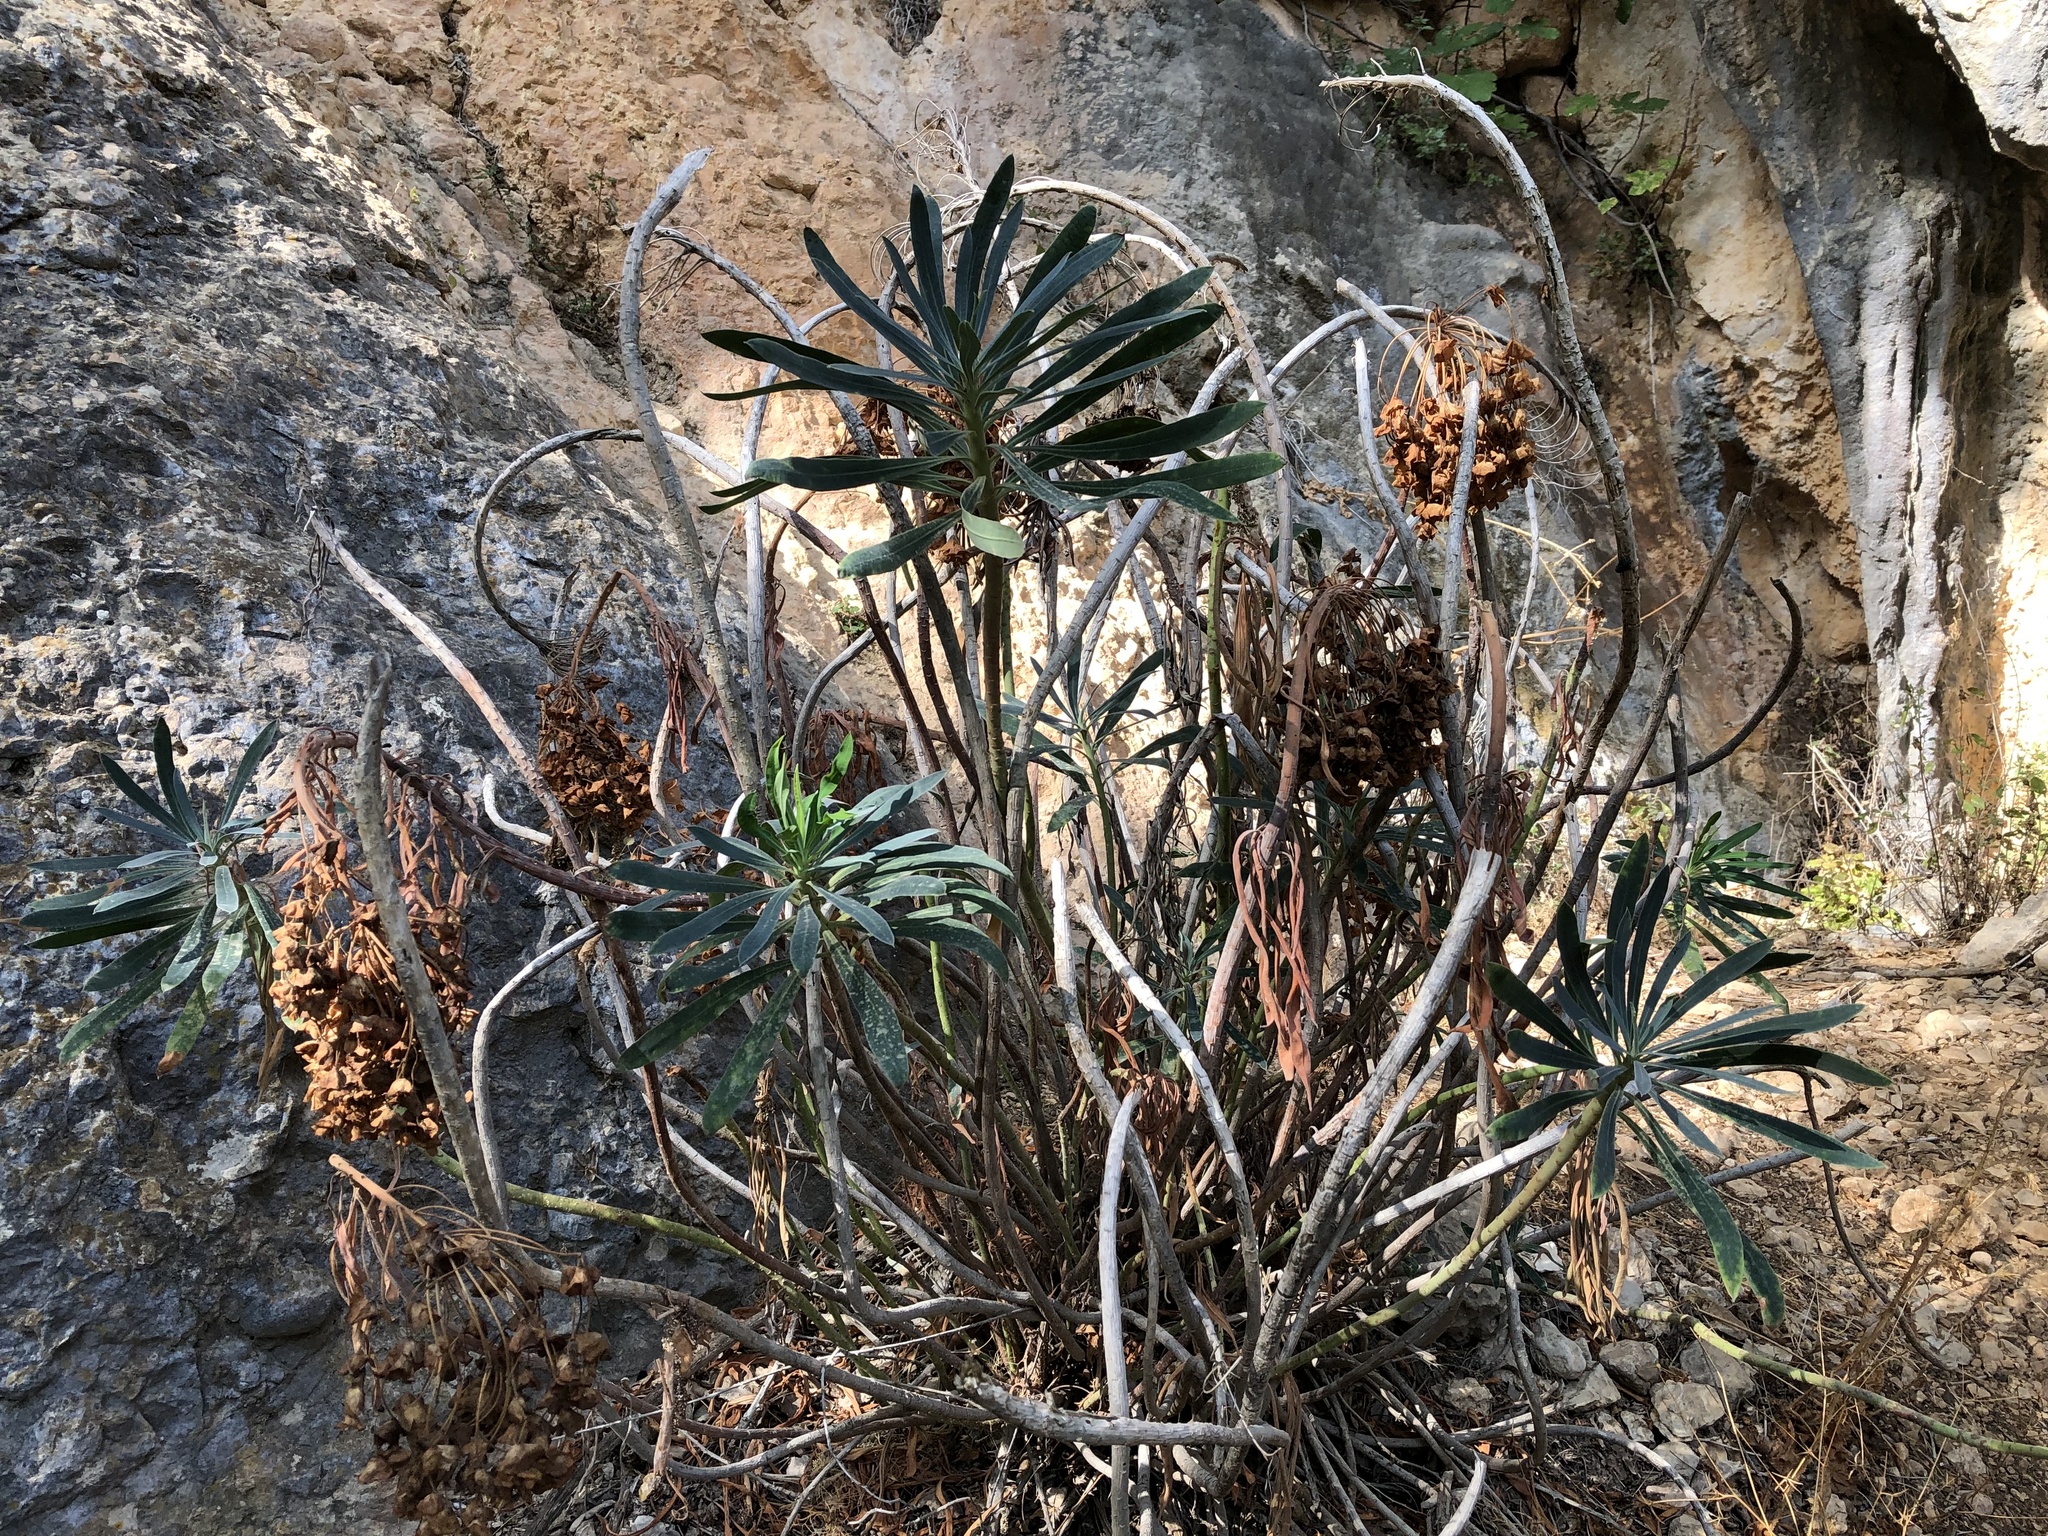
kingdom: Plantae
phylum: Tracheophyta
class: Magnoliopsida
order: Malpighiales
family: Euphorbiaceae
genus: Euphorbia
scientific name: Euphorbia characias
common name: Mediterranean spurge
